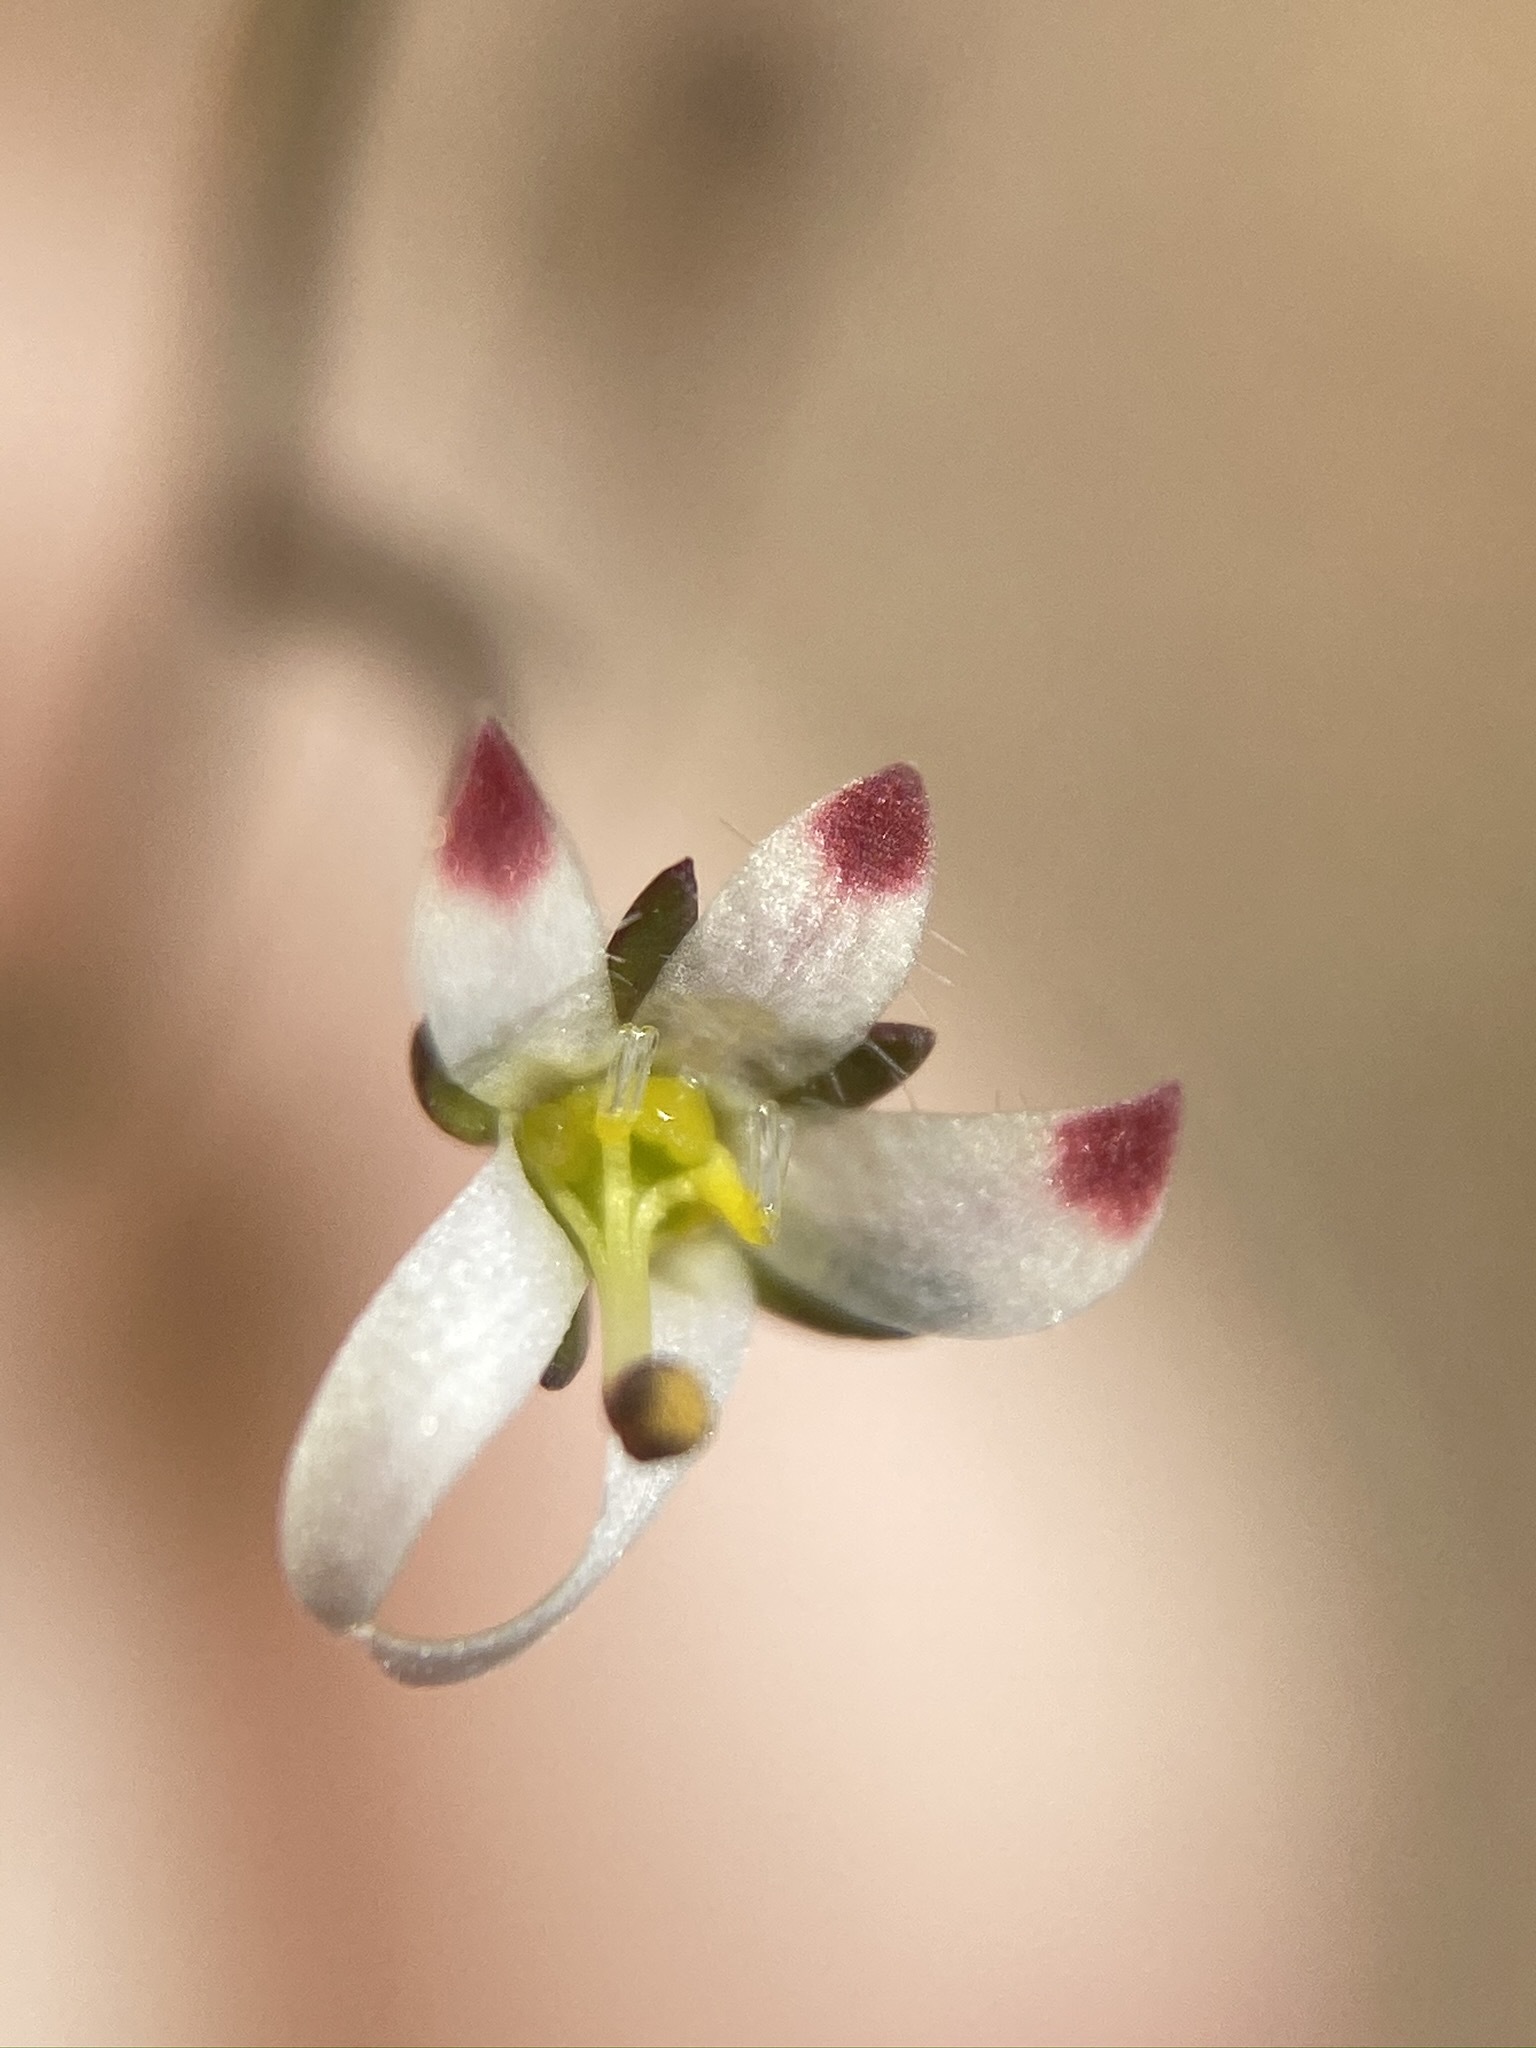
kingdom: Plantae
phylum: Tracheophyta
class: Magnoliopsida
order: Asterales
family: Campanulaceae
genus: Nemacladus
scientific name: Nemacladus orientalis
